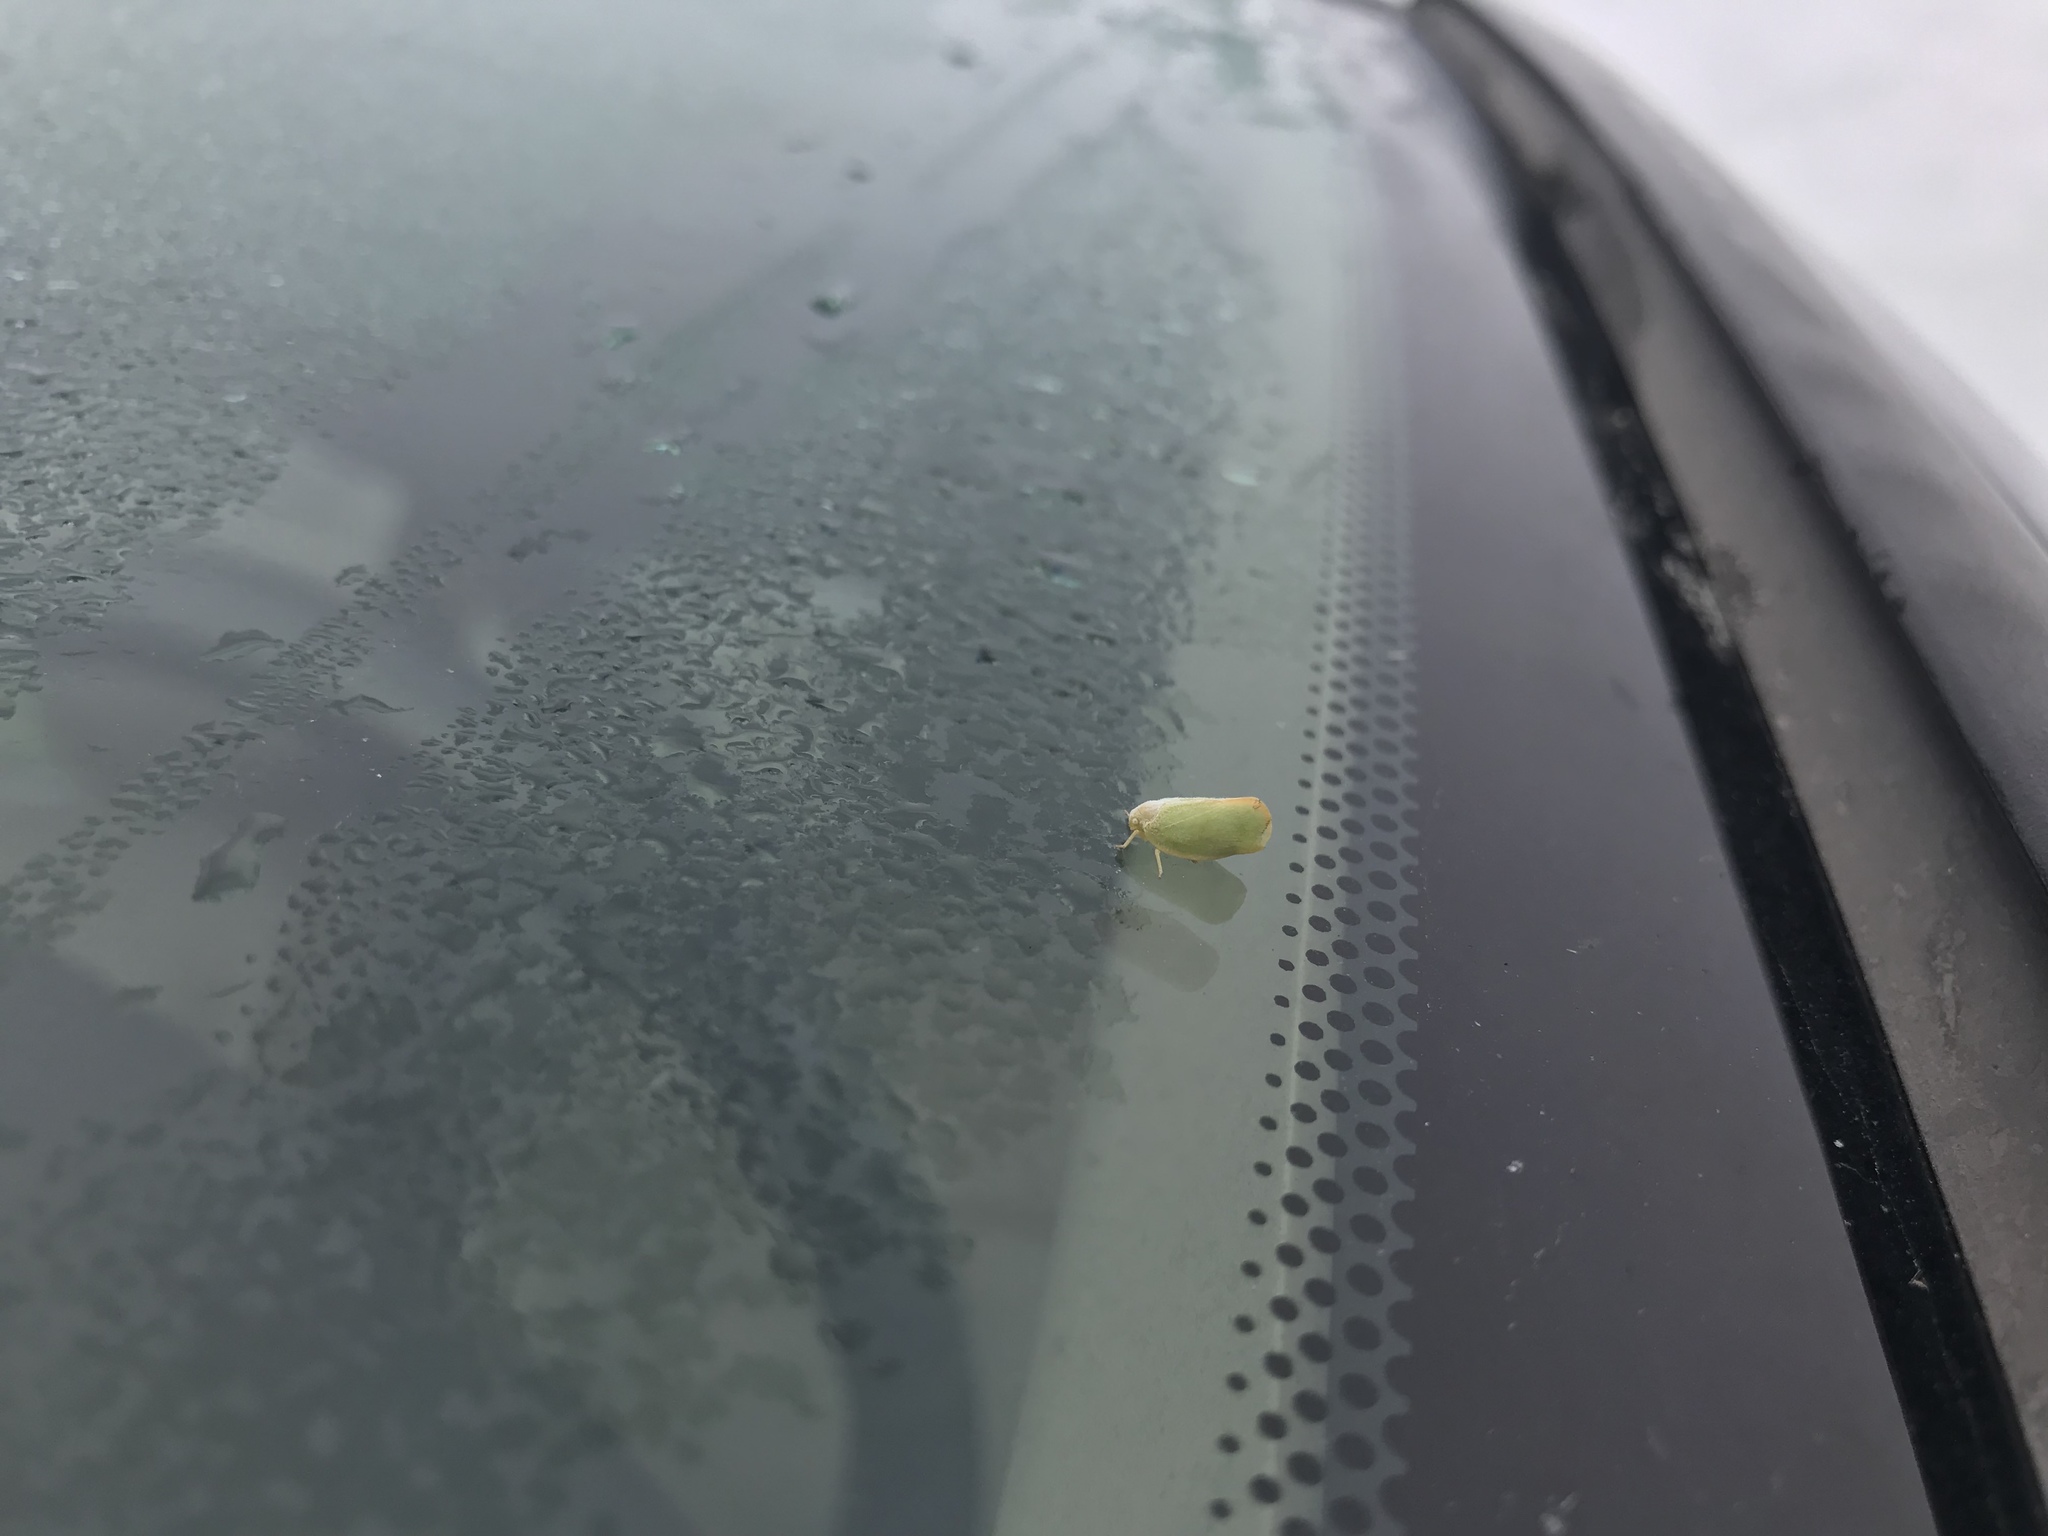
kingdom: Animalia
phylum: Arthropoda
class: Insecta
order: Hemiptera
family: Flatidae
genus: Ormenoides
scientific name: Ormenoides venusta
